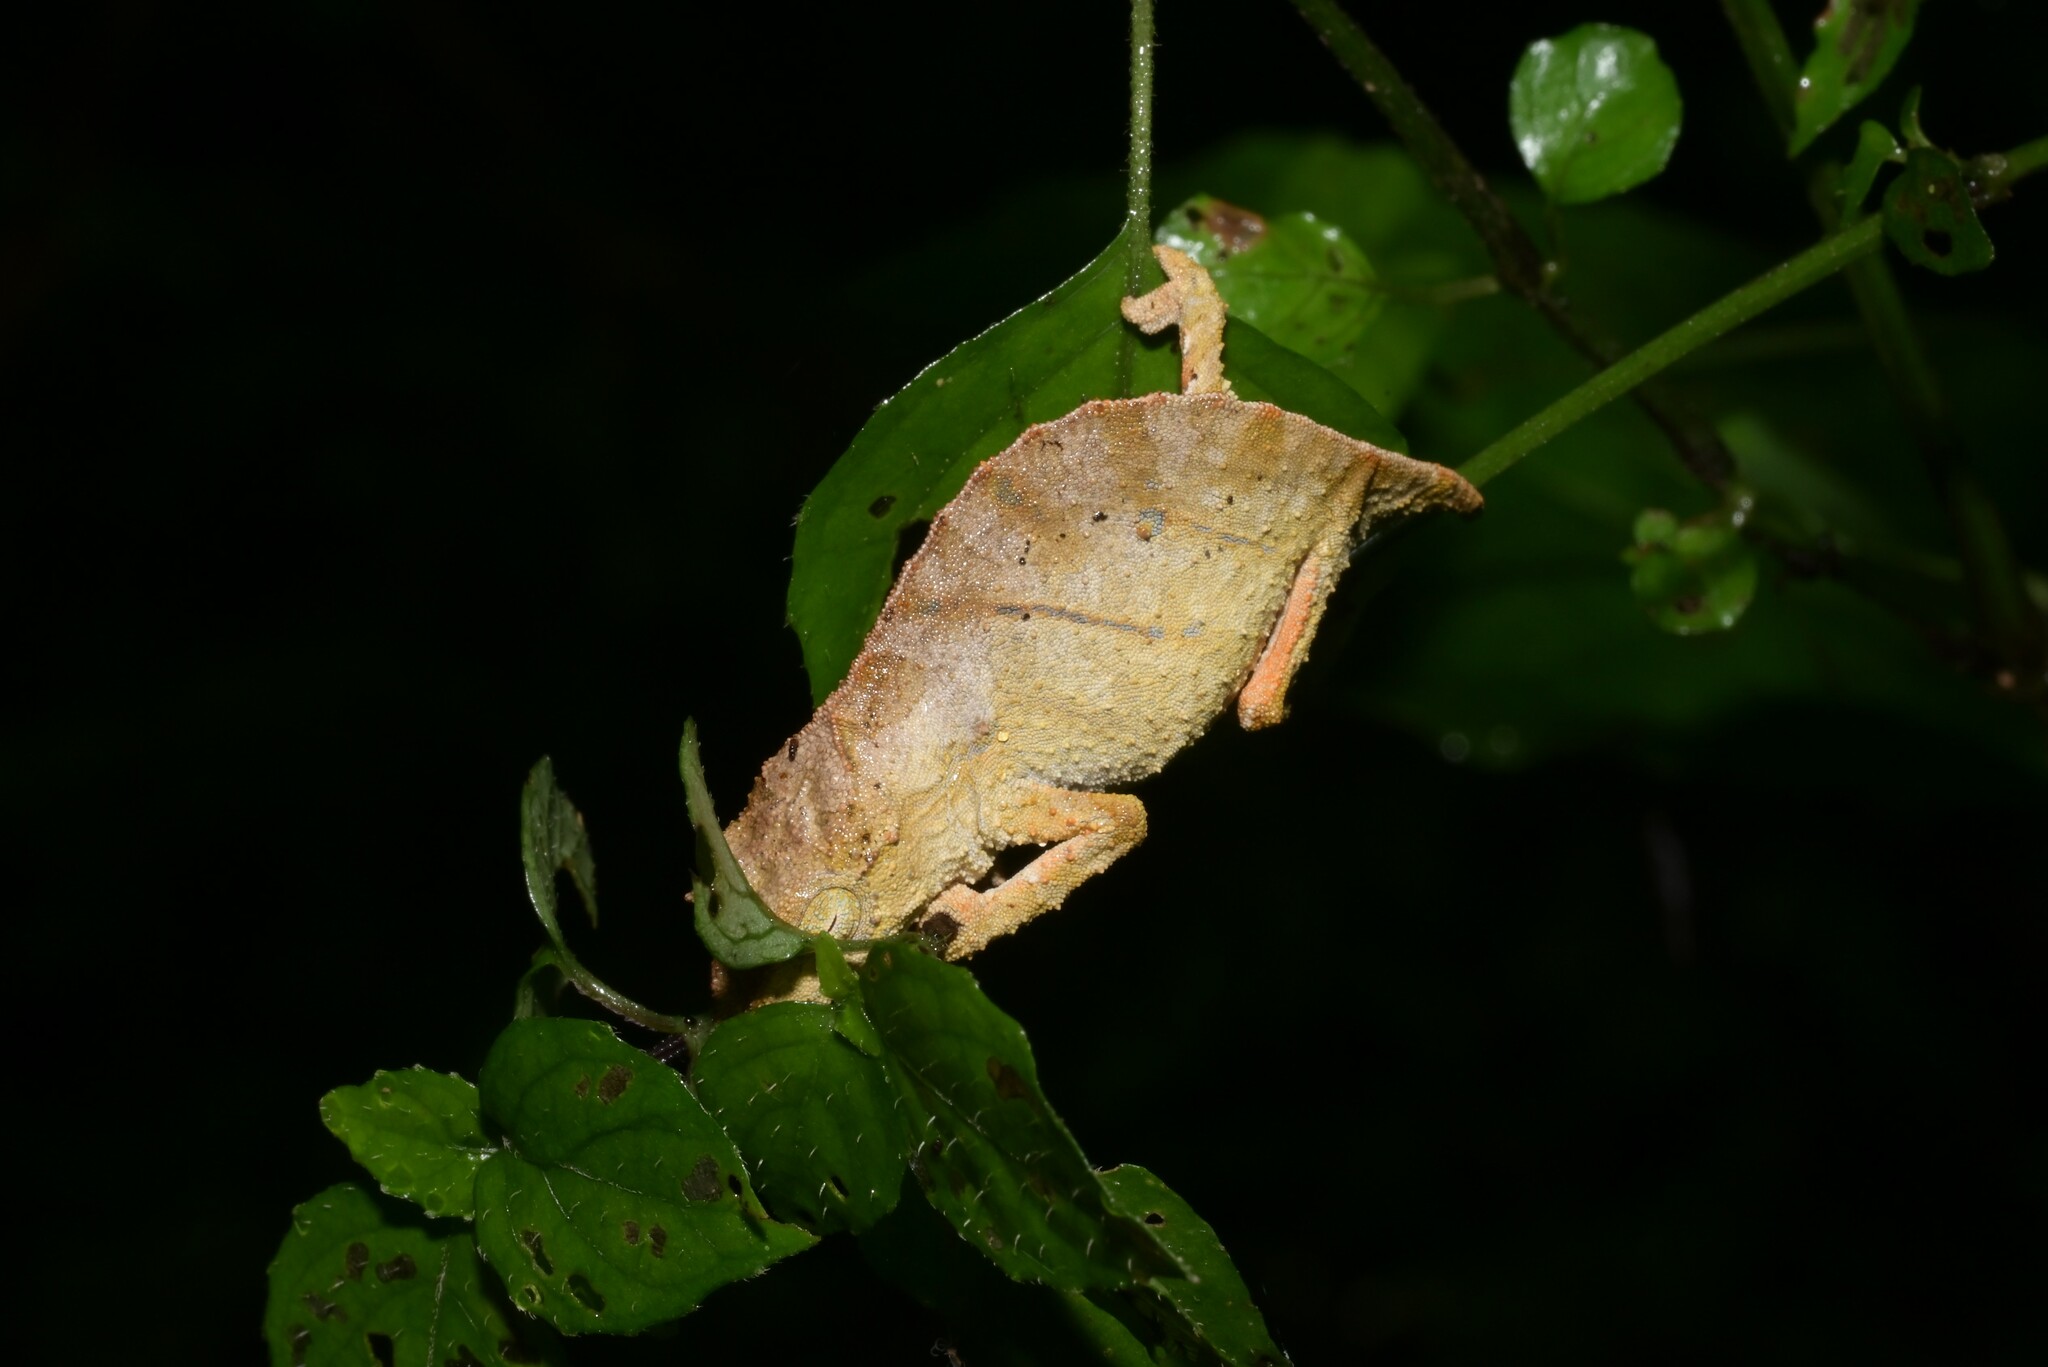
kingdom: Animalia
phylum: Chordata
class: Squamata
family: Chamaeleonidae
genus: Rhampholeon
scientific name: Rhampholeon nchisiensis
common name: South african stumptail chameleon
